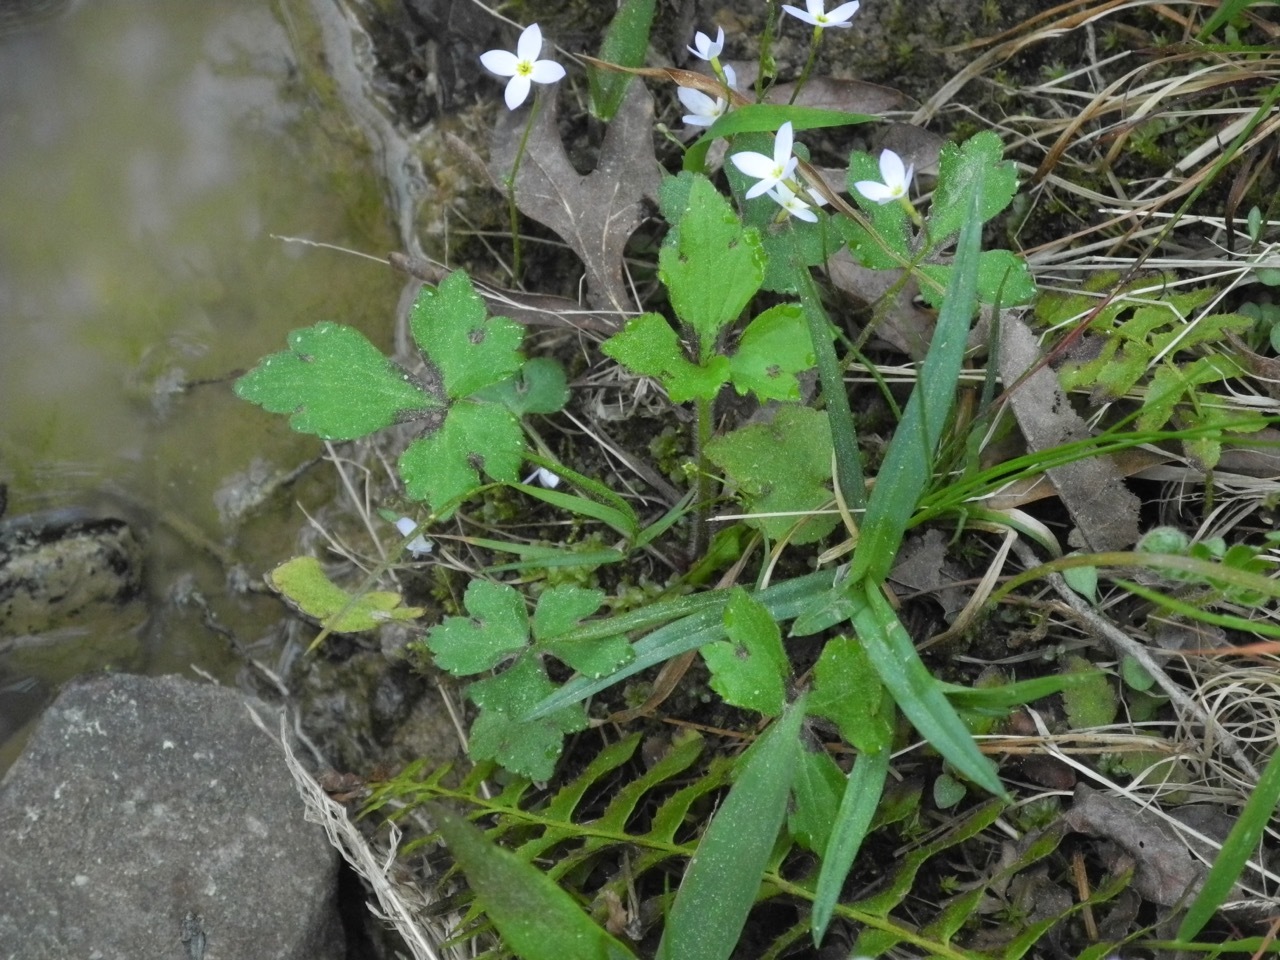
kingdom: Plantae
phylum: Tracheophyta
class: Magnoliopsida
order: Ranunculales
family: Ranunculaceae
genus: Ranunculus
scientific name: Ranunculus repens
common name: Creeping buttercup
